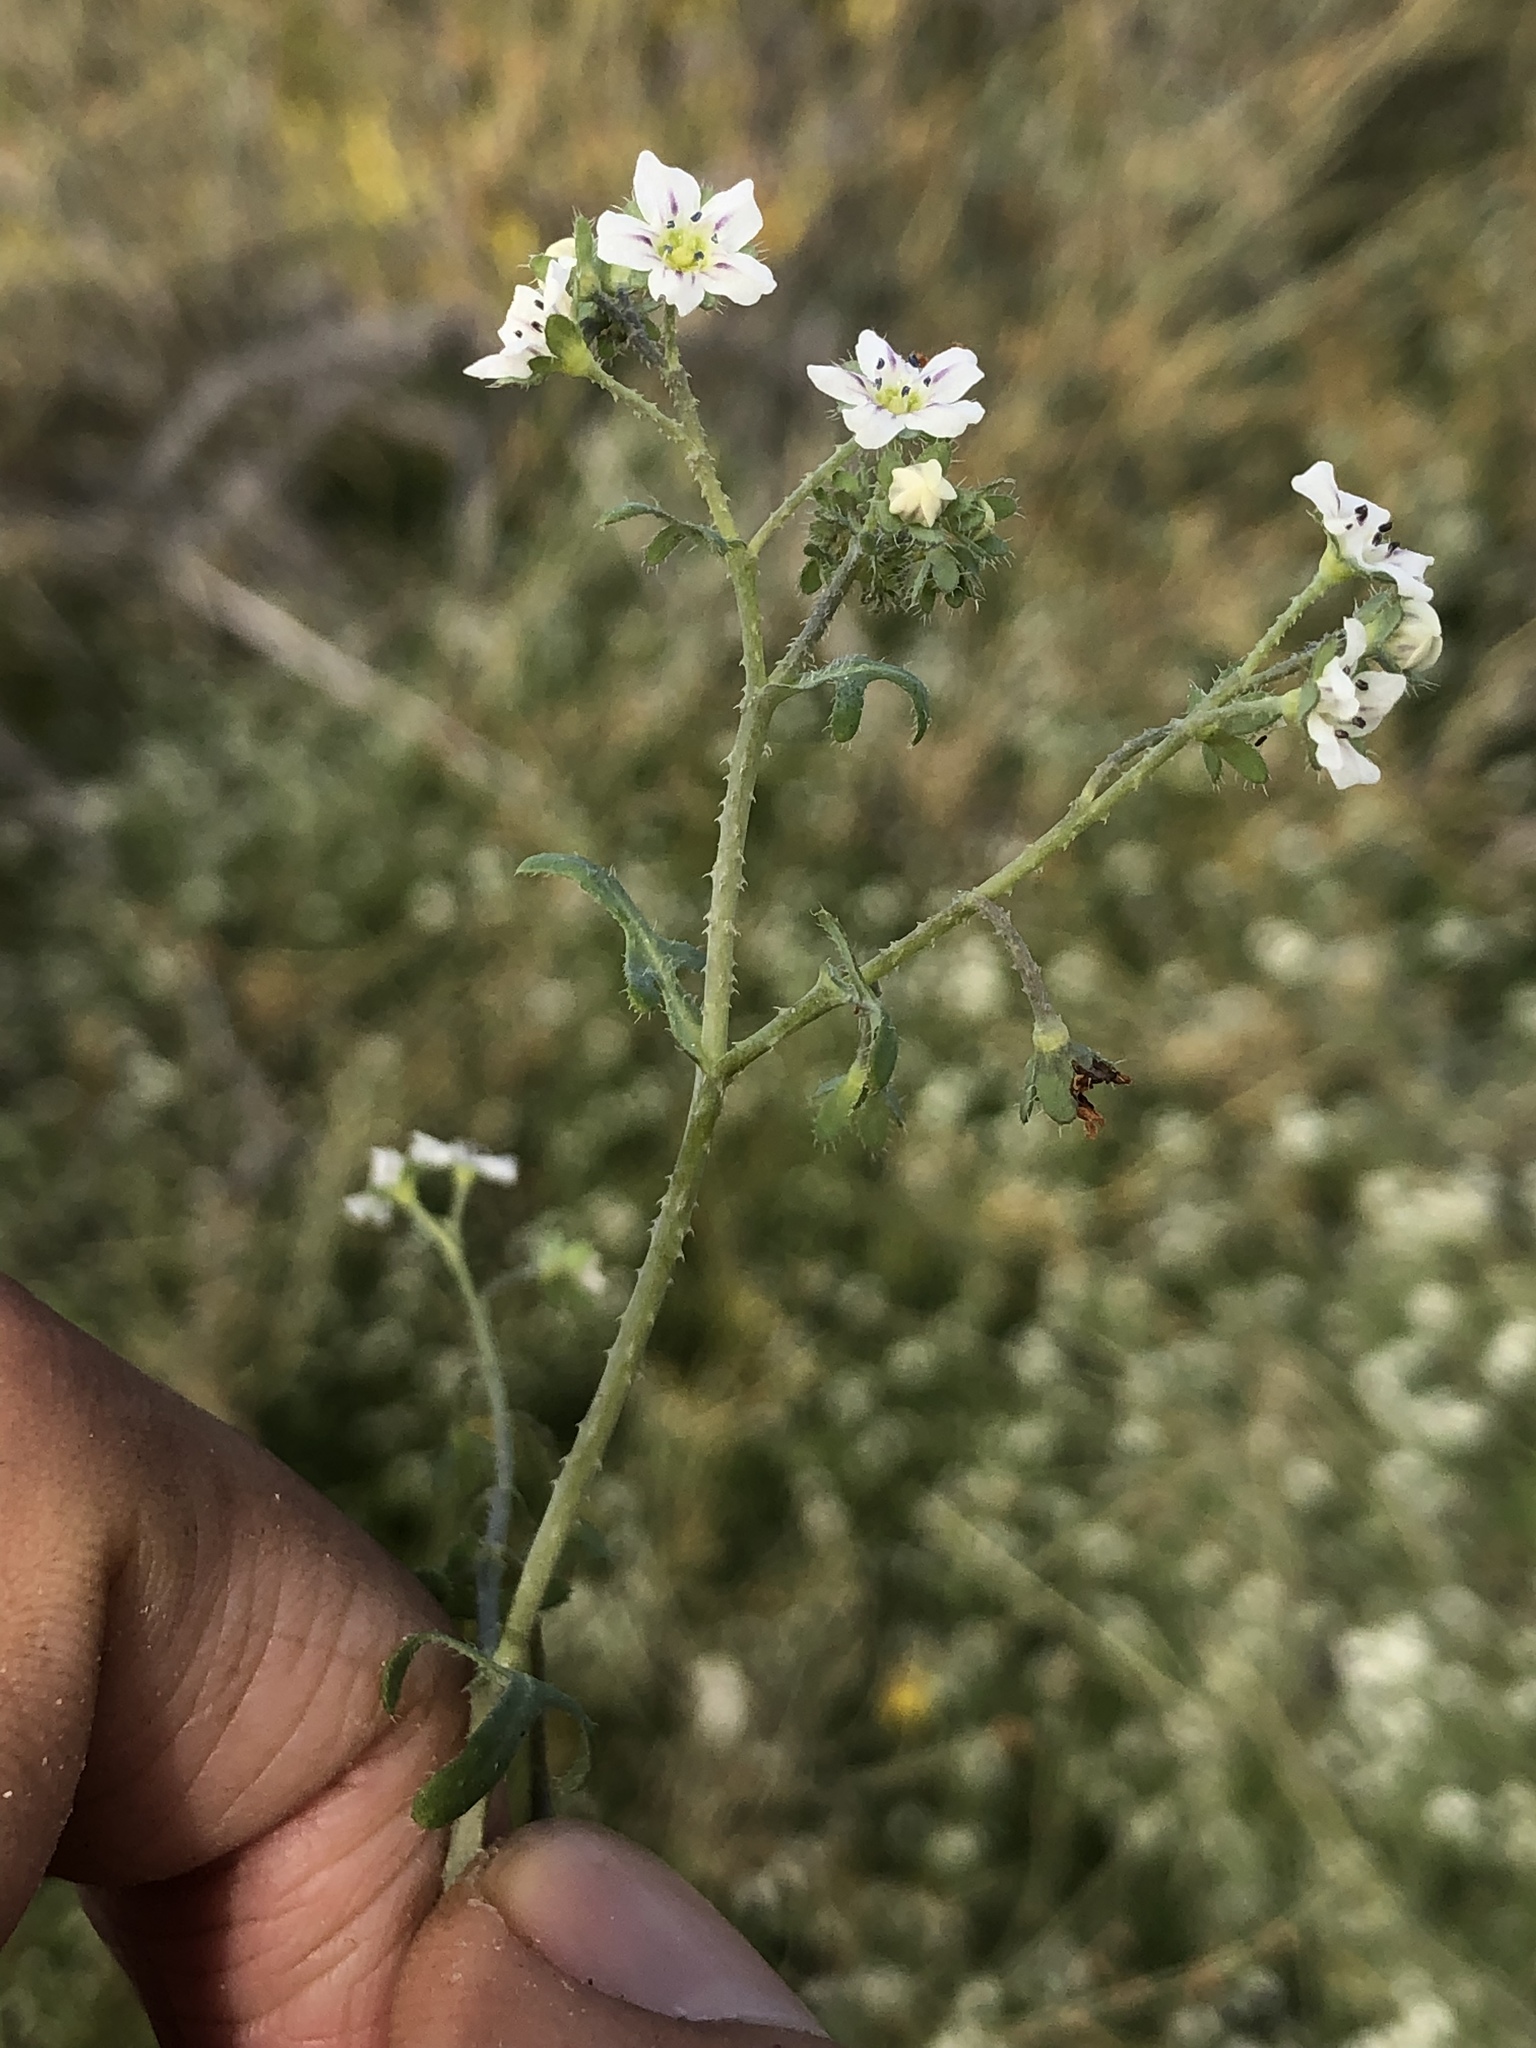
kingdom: Plantae
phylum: Tracheophyta
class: Magnoliopsida
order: Boraginales
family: Hydrophyllaceae
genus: Pholistoma
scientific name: Pholistoma membranaceum
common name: White fiesta-flower
